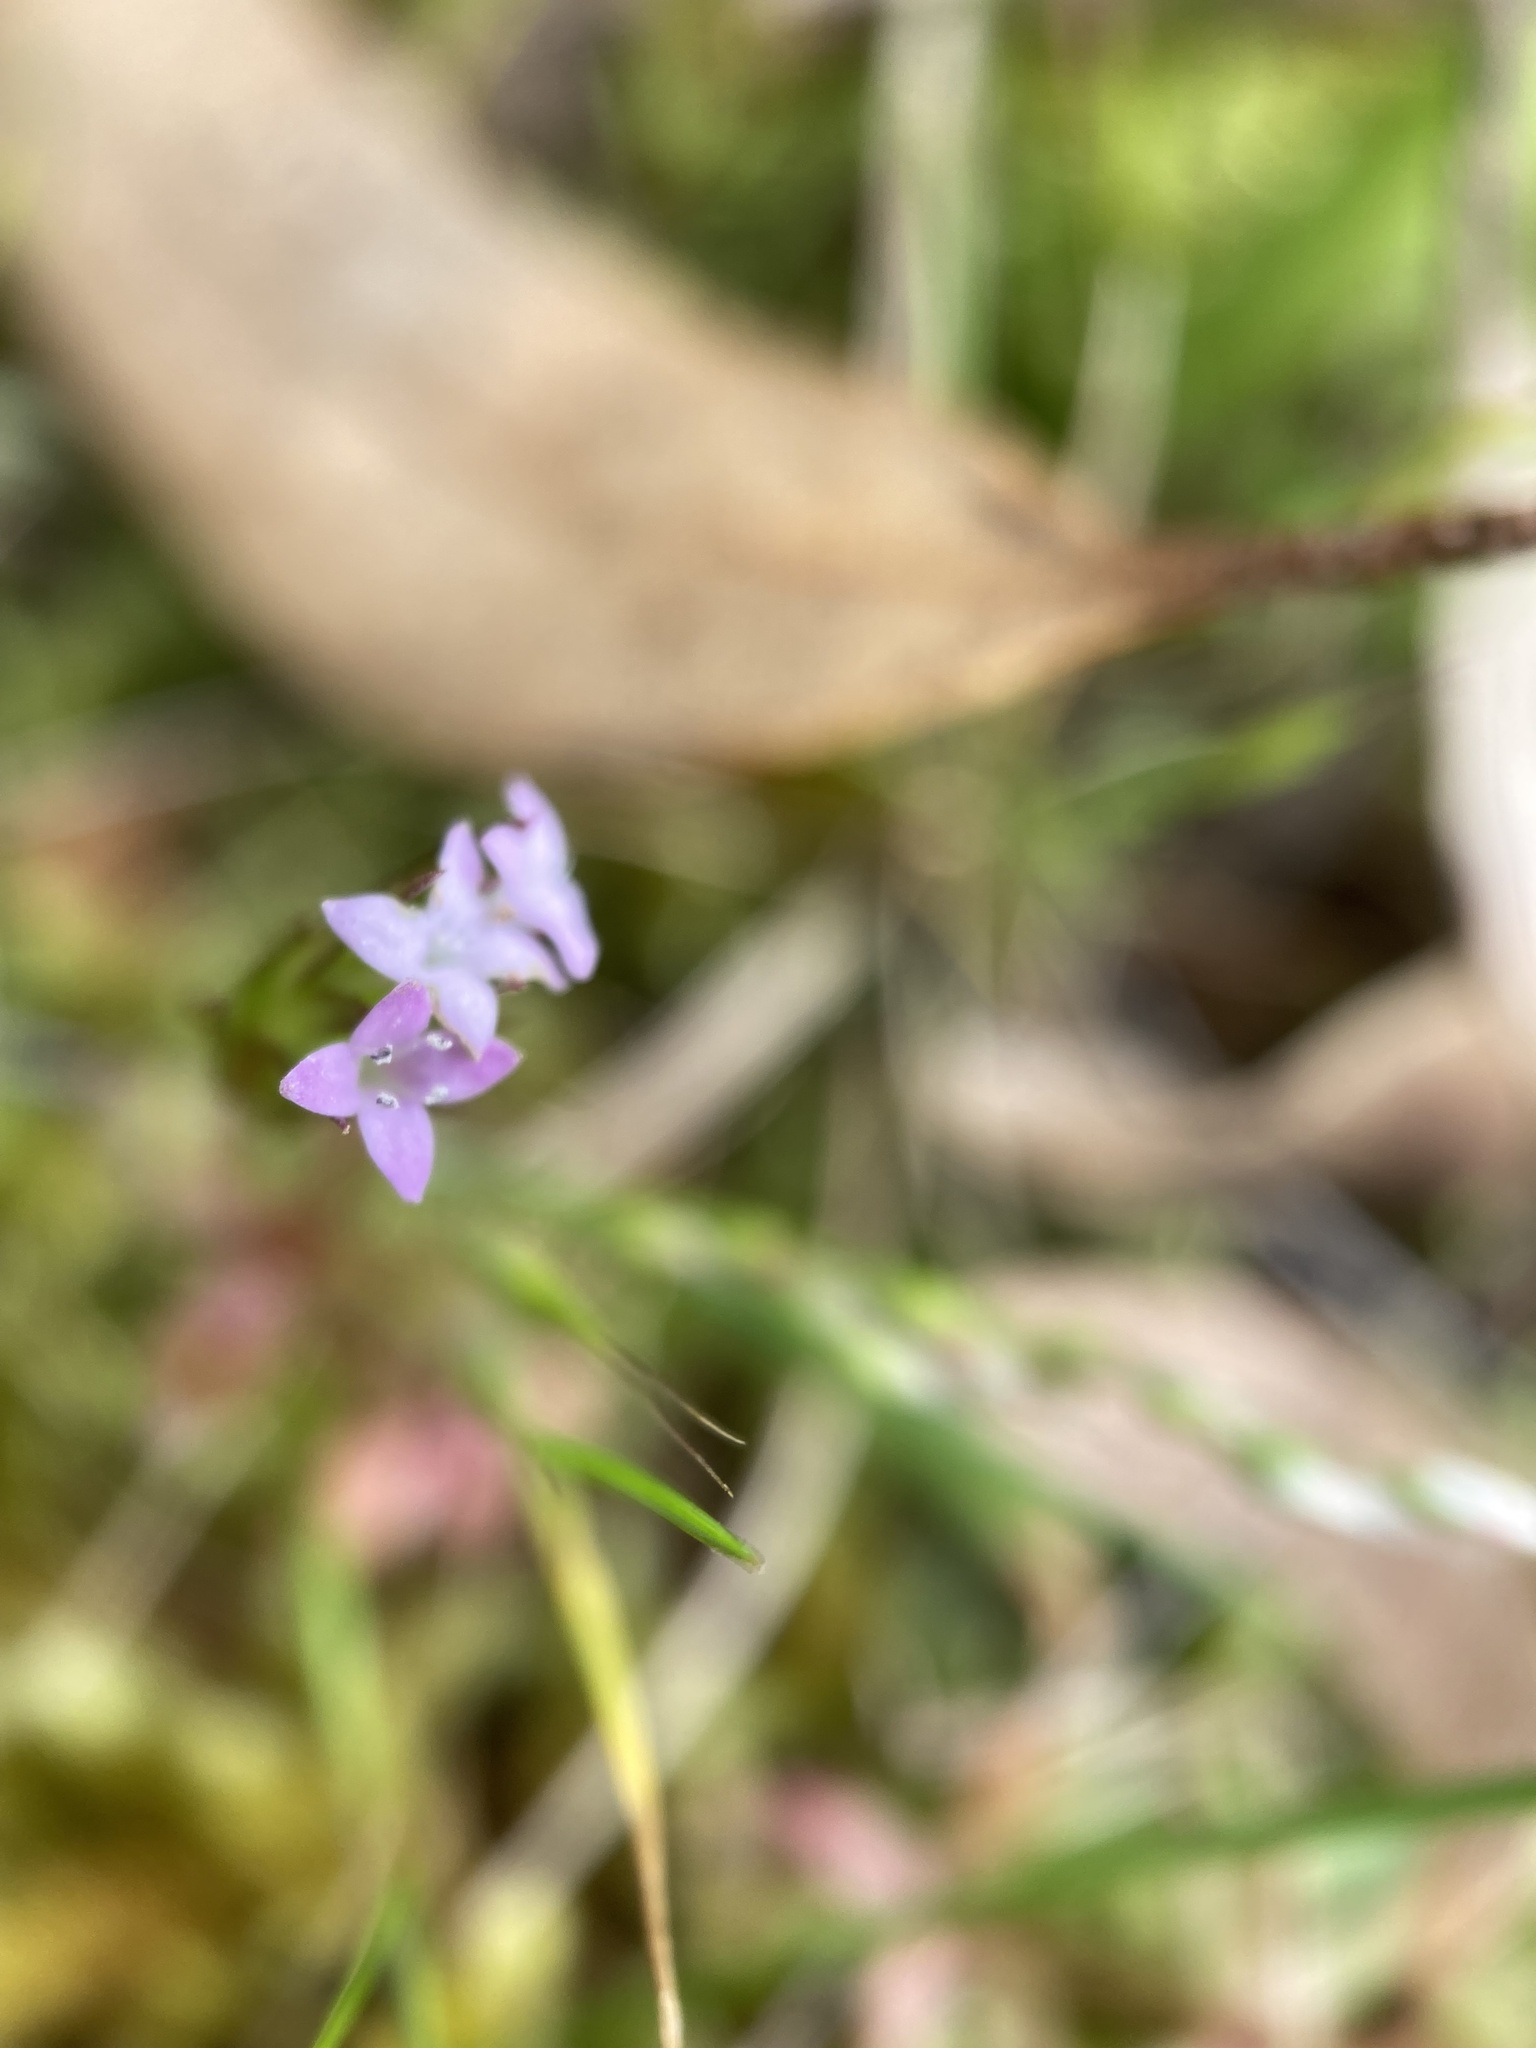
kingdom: Plantae
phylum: Tracheophyta
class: Magnoliopsida
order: Gentianales
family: Rubiaceae
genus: Sherardia
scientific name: Sherardia arvensis
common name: Field madder
